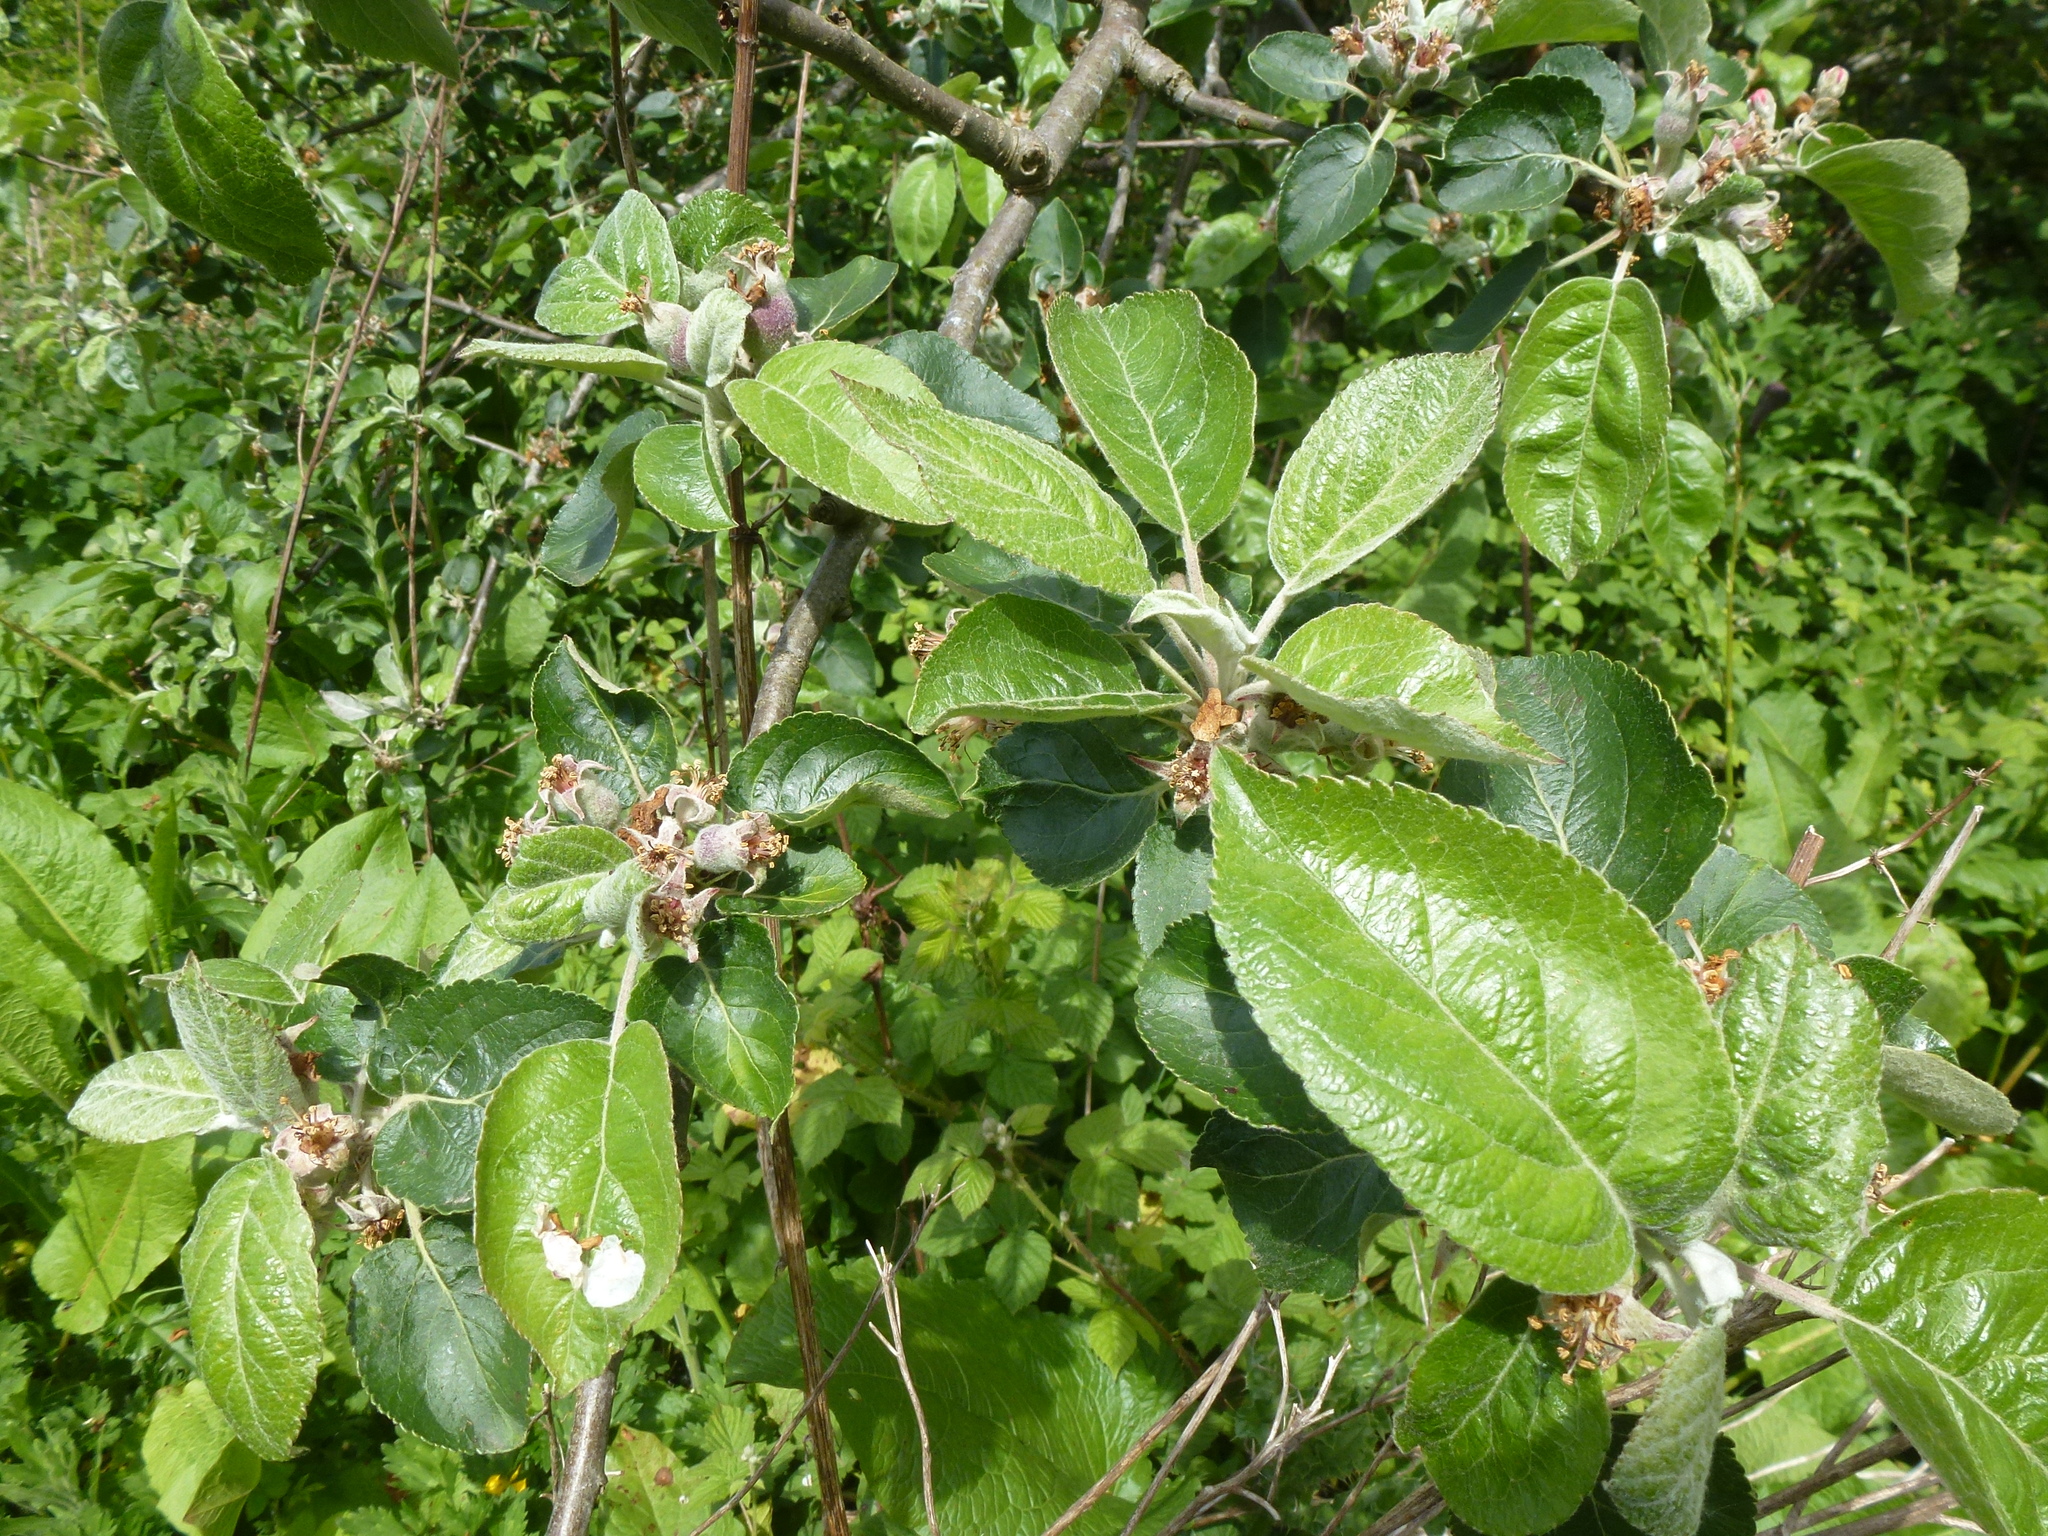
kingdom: Plantae
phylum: Tracheophyta
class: Magnoliopsida
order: Rosales
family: Rosaceae
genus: Malus
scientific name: Malus domestica
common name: Apple
